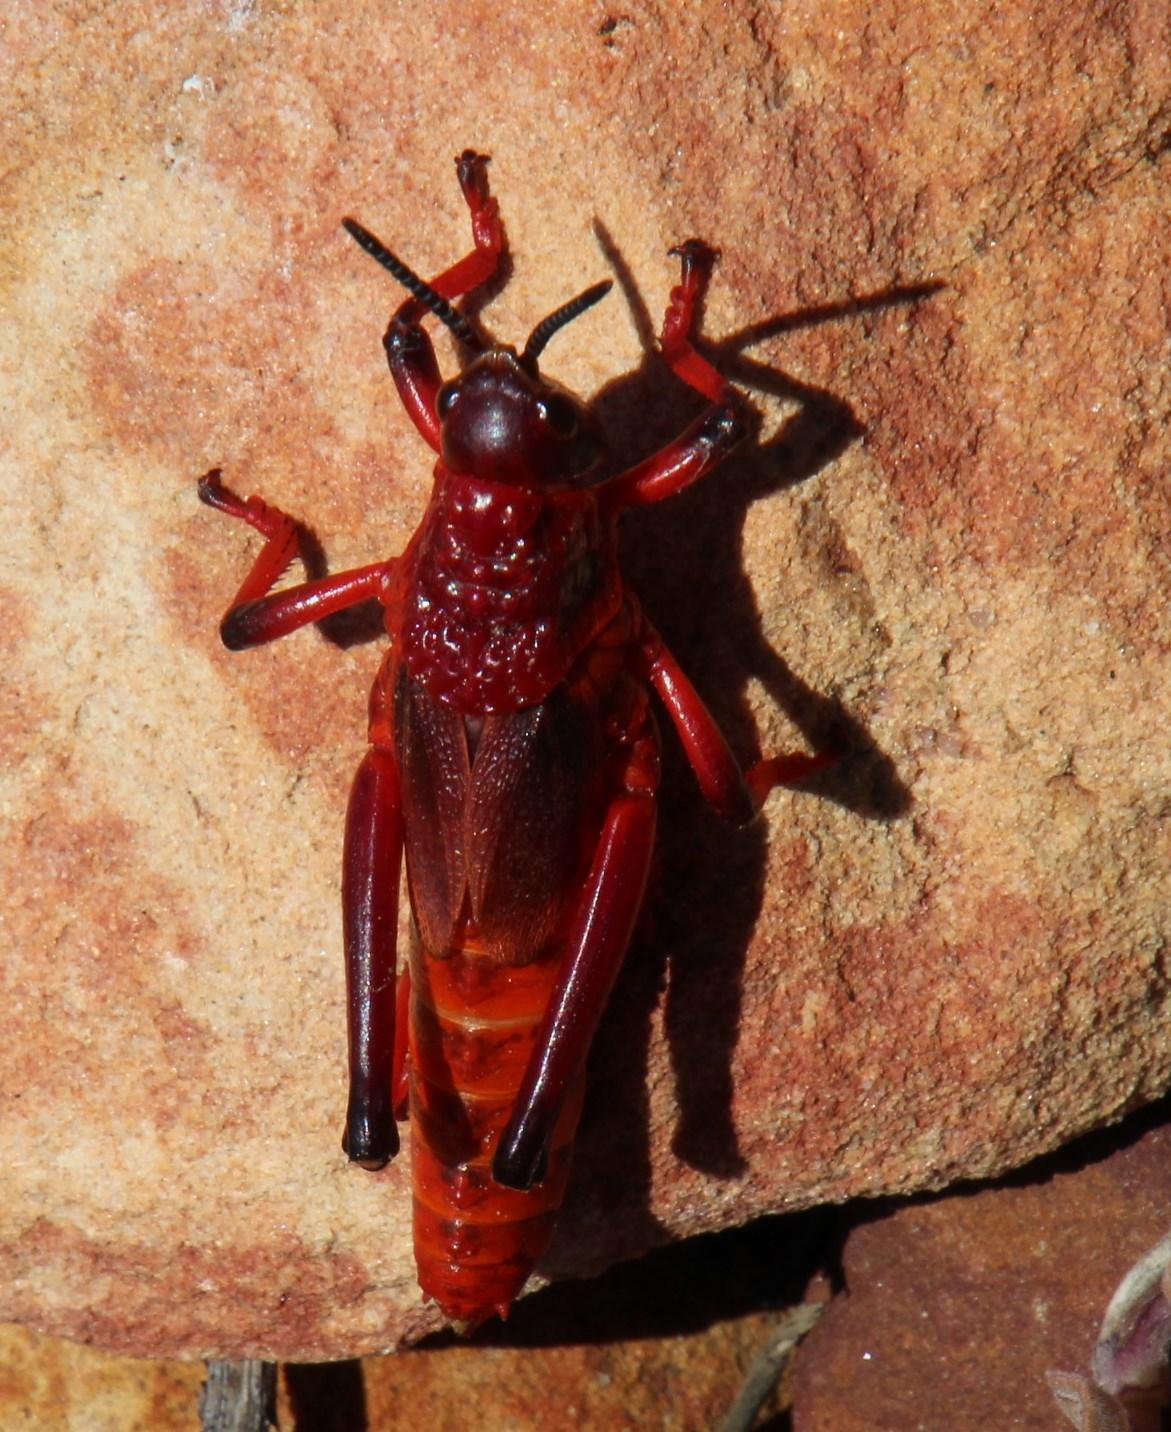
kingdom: Animalia
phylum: Arthropoda
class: Insecta
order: Orthoptera
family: Pyrgomorphidae
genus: Dictyophorus
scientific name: Dictyophorus spumans
